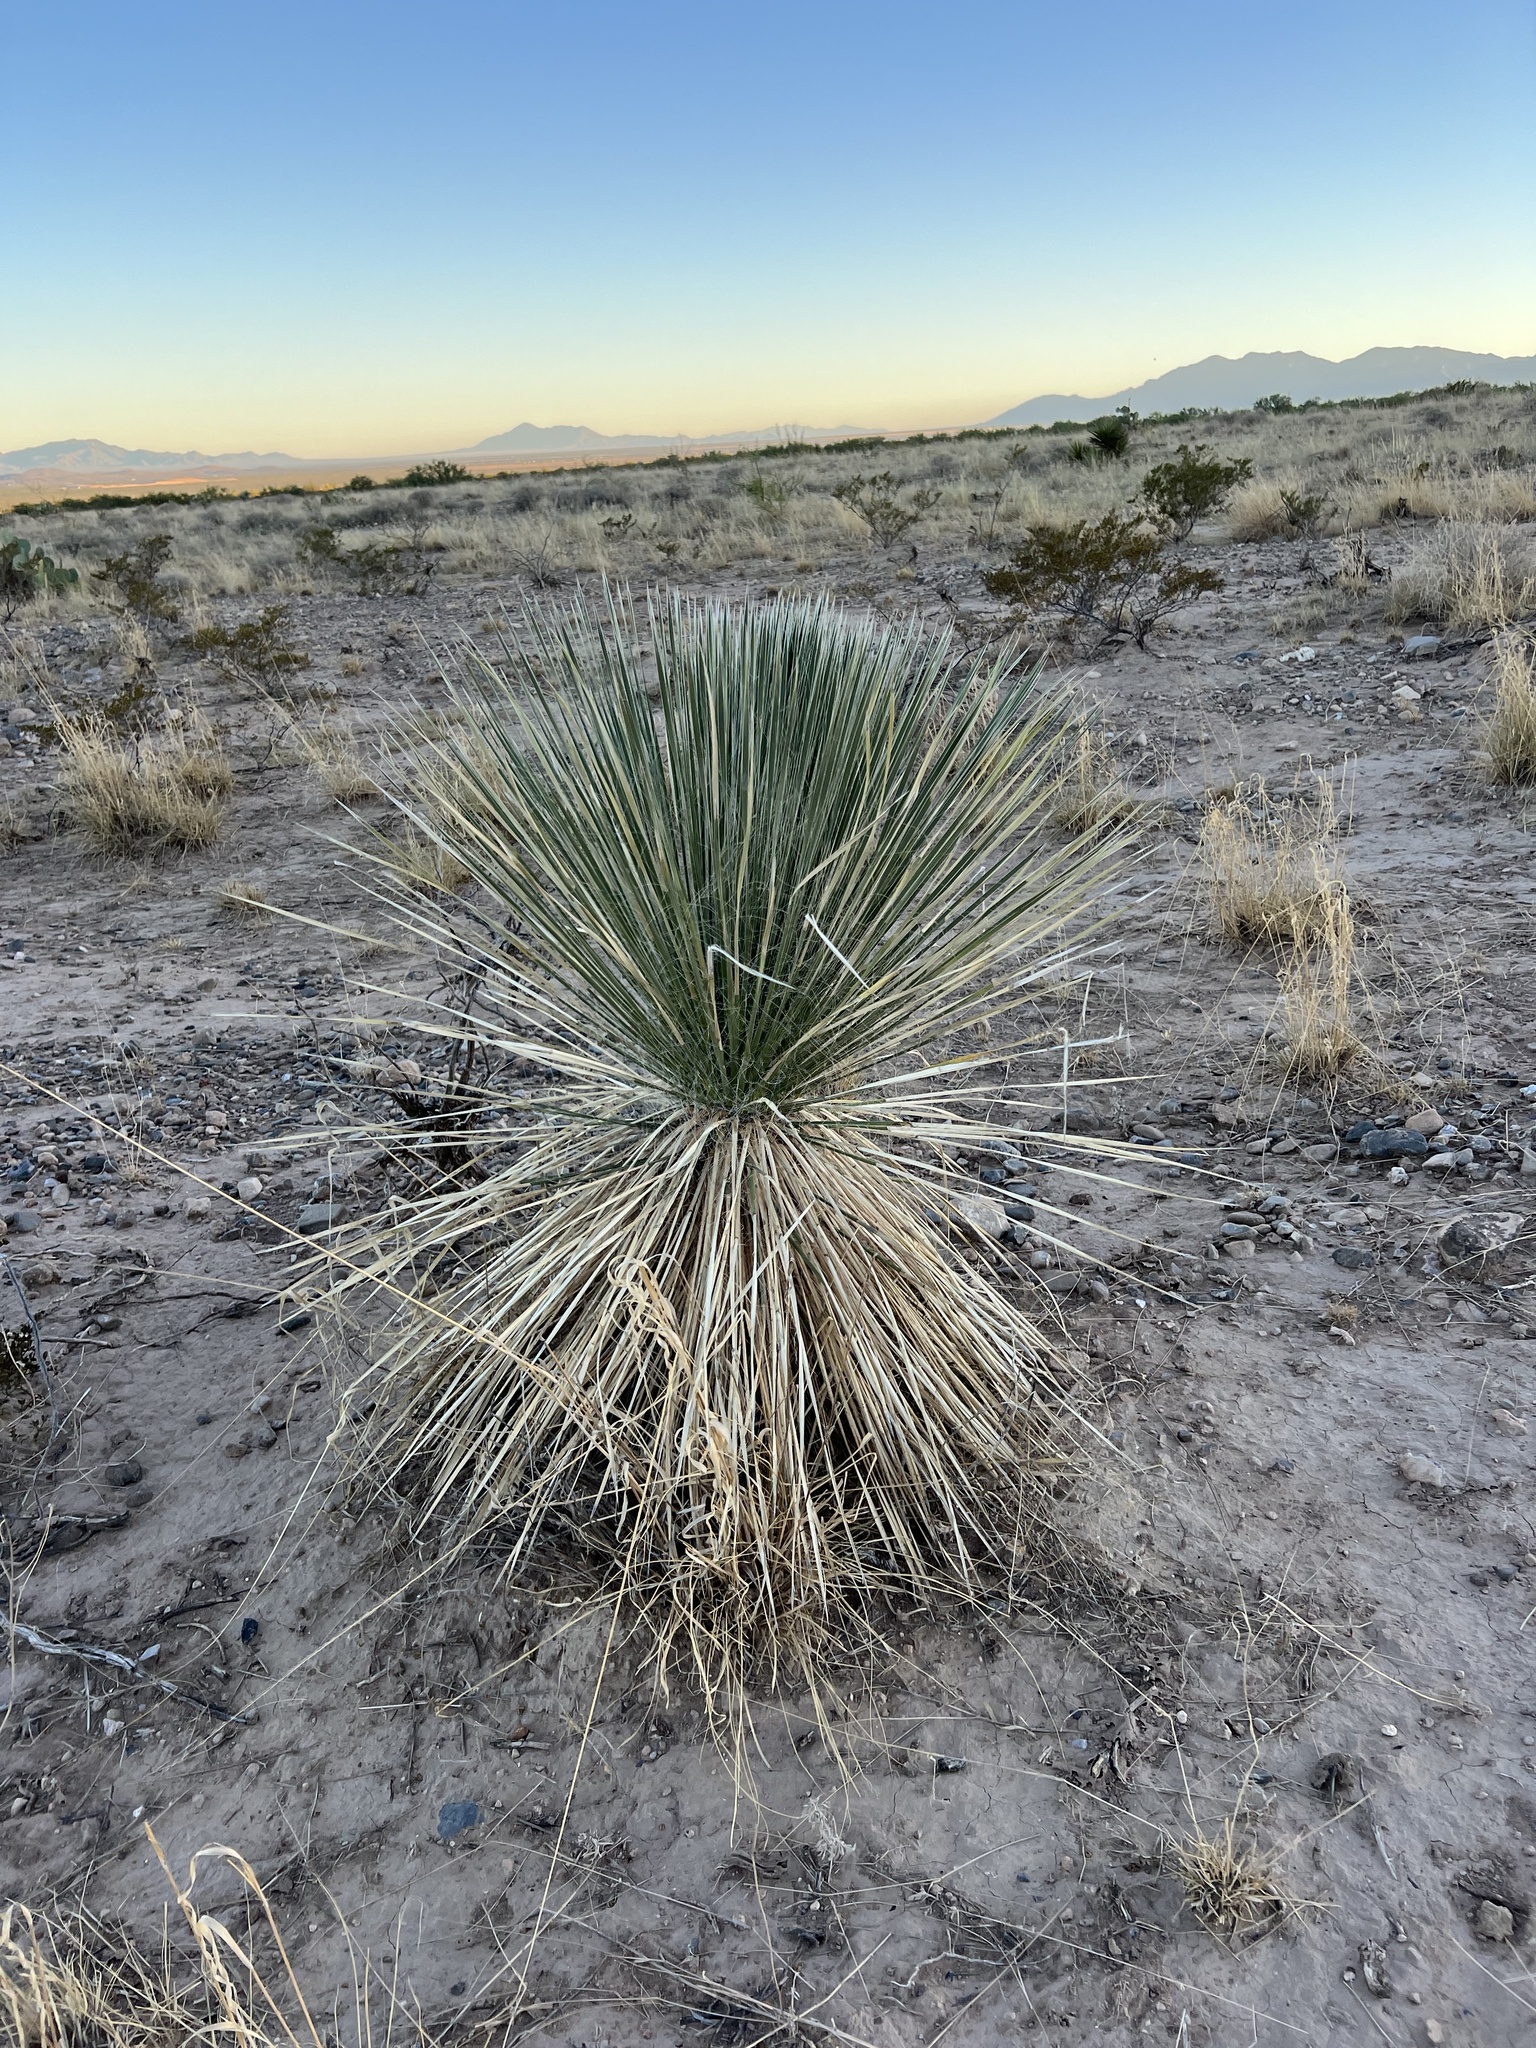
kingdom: Plantae
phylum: Tracheophyta
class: Liliopsida
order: Asparagales
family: Asparagaceae
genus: Yucca
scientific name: Yucca elata
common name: Palmella
